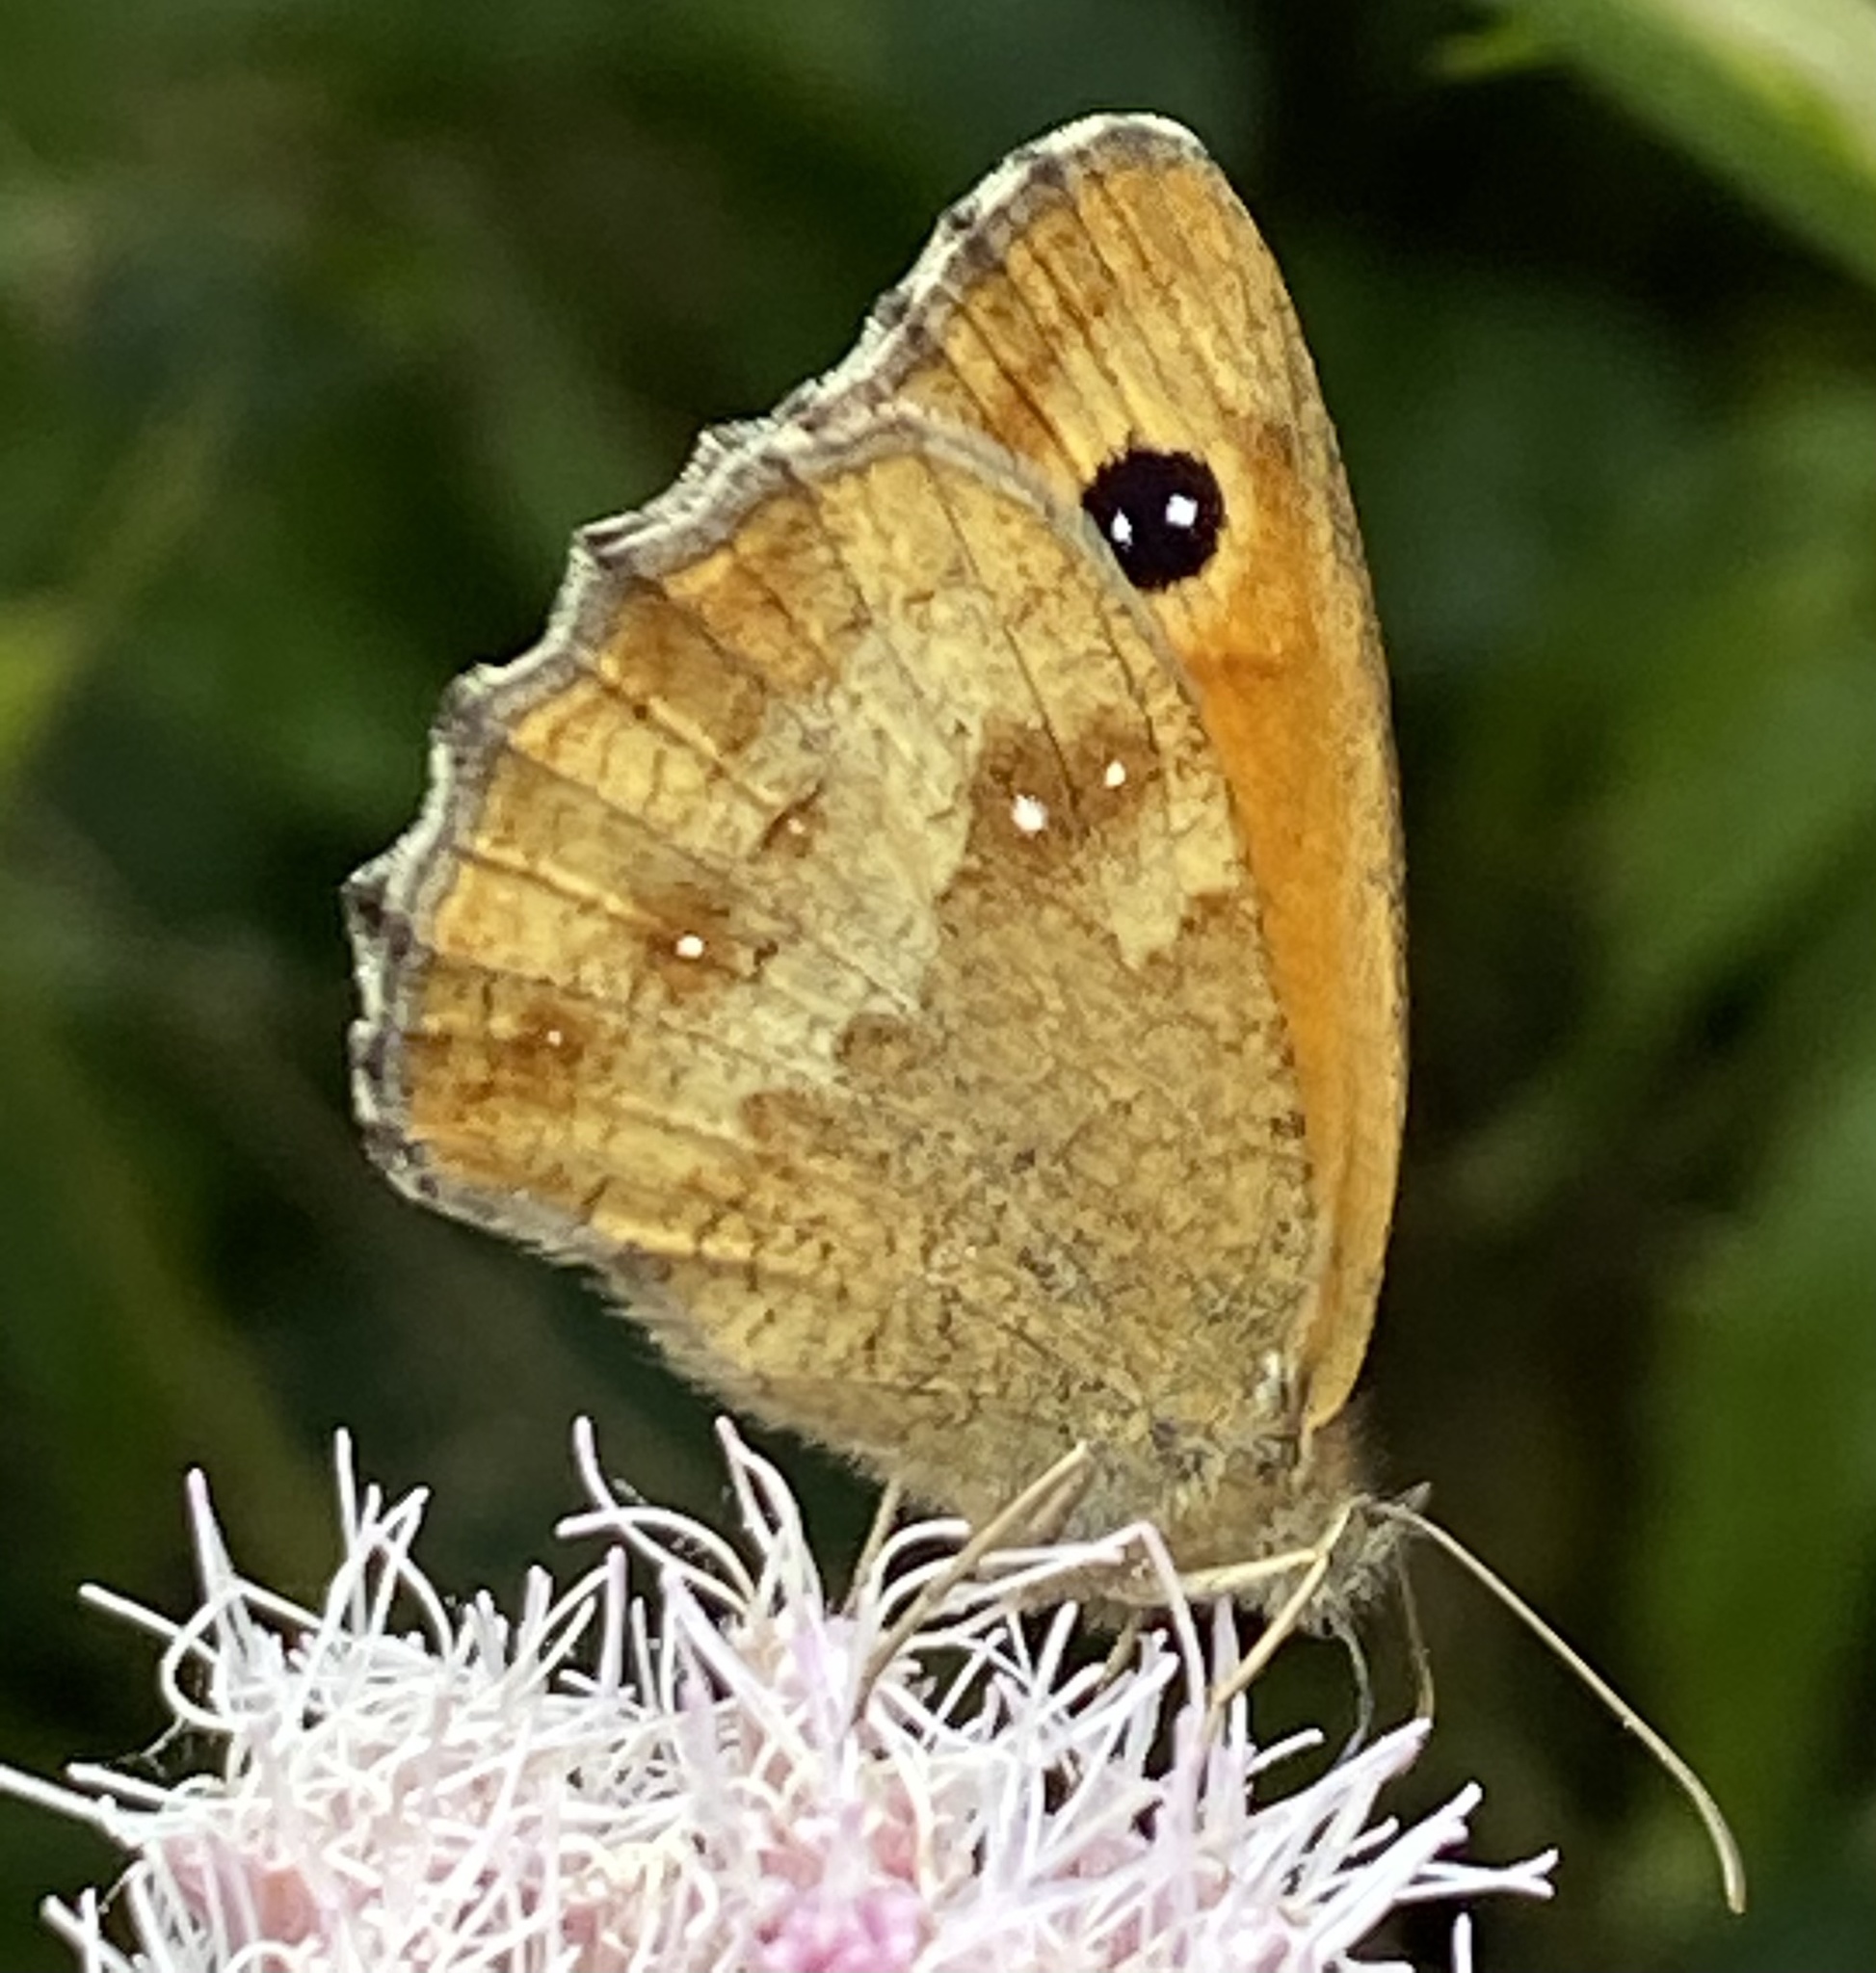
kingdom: Animalia
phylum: Arthropoda
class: Insecta
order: Lepidoptera
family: Nymphalidae
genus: Pyronia
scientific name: Pyronia tithonus
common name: Gatekeeper
